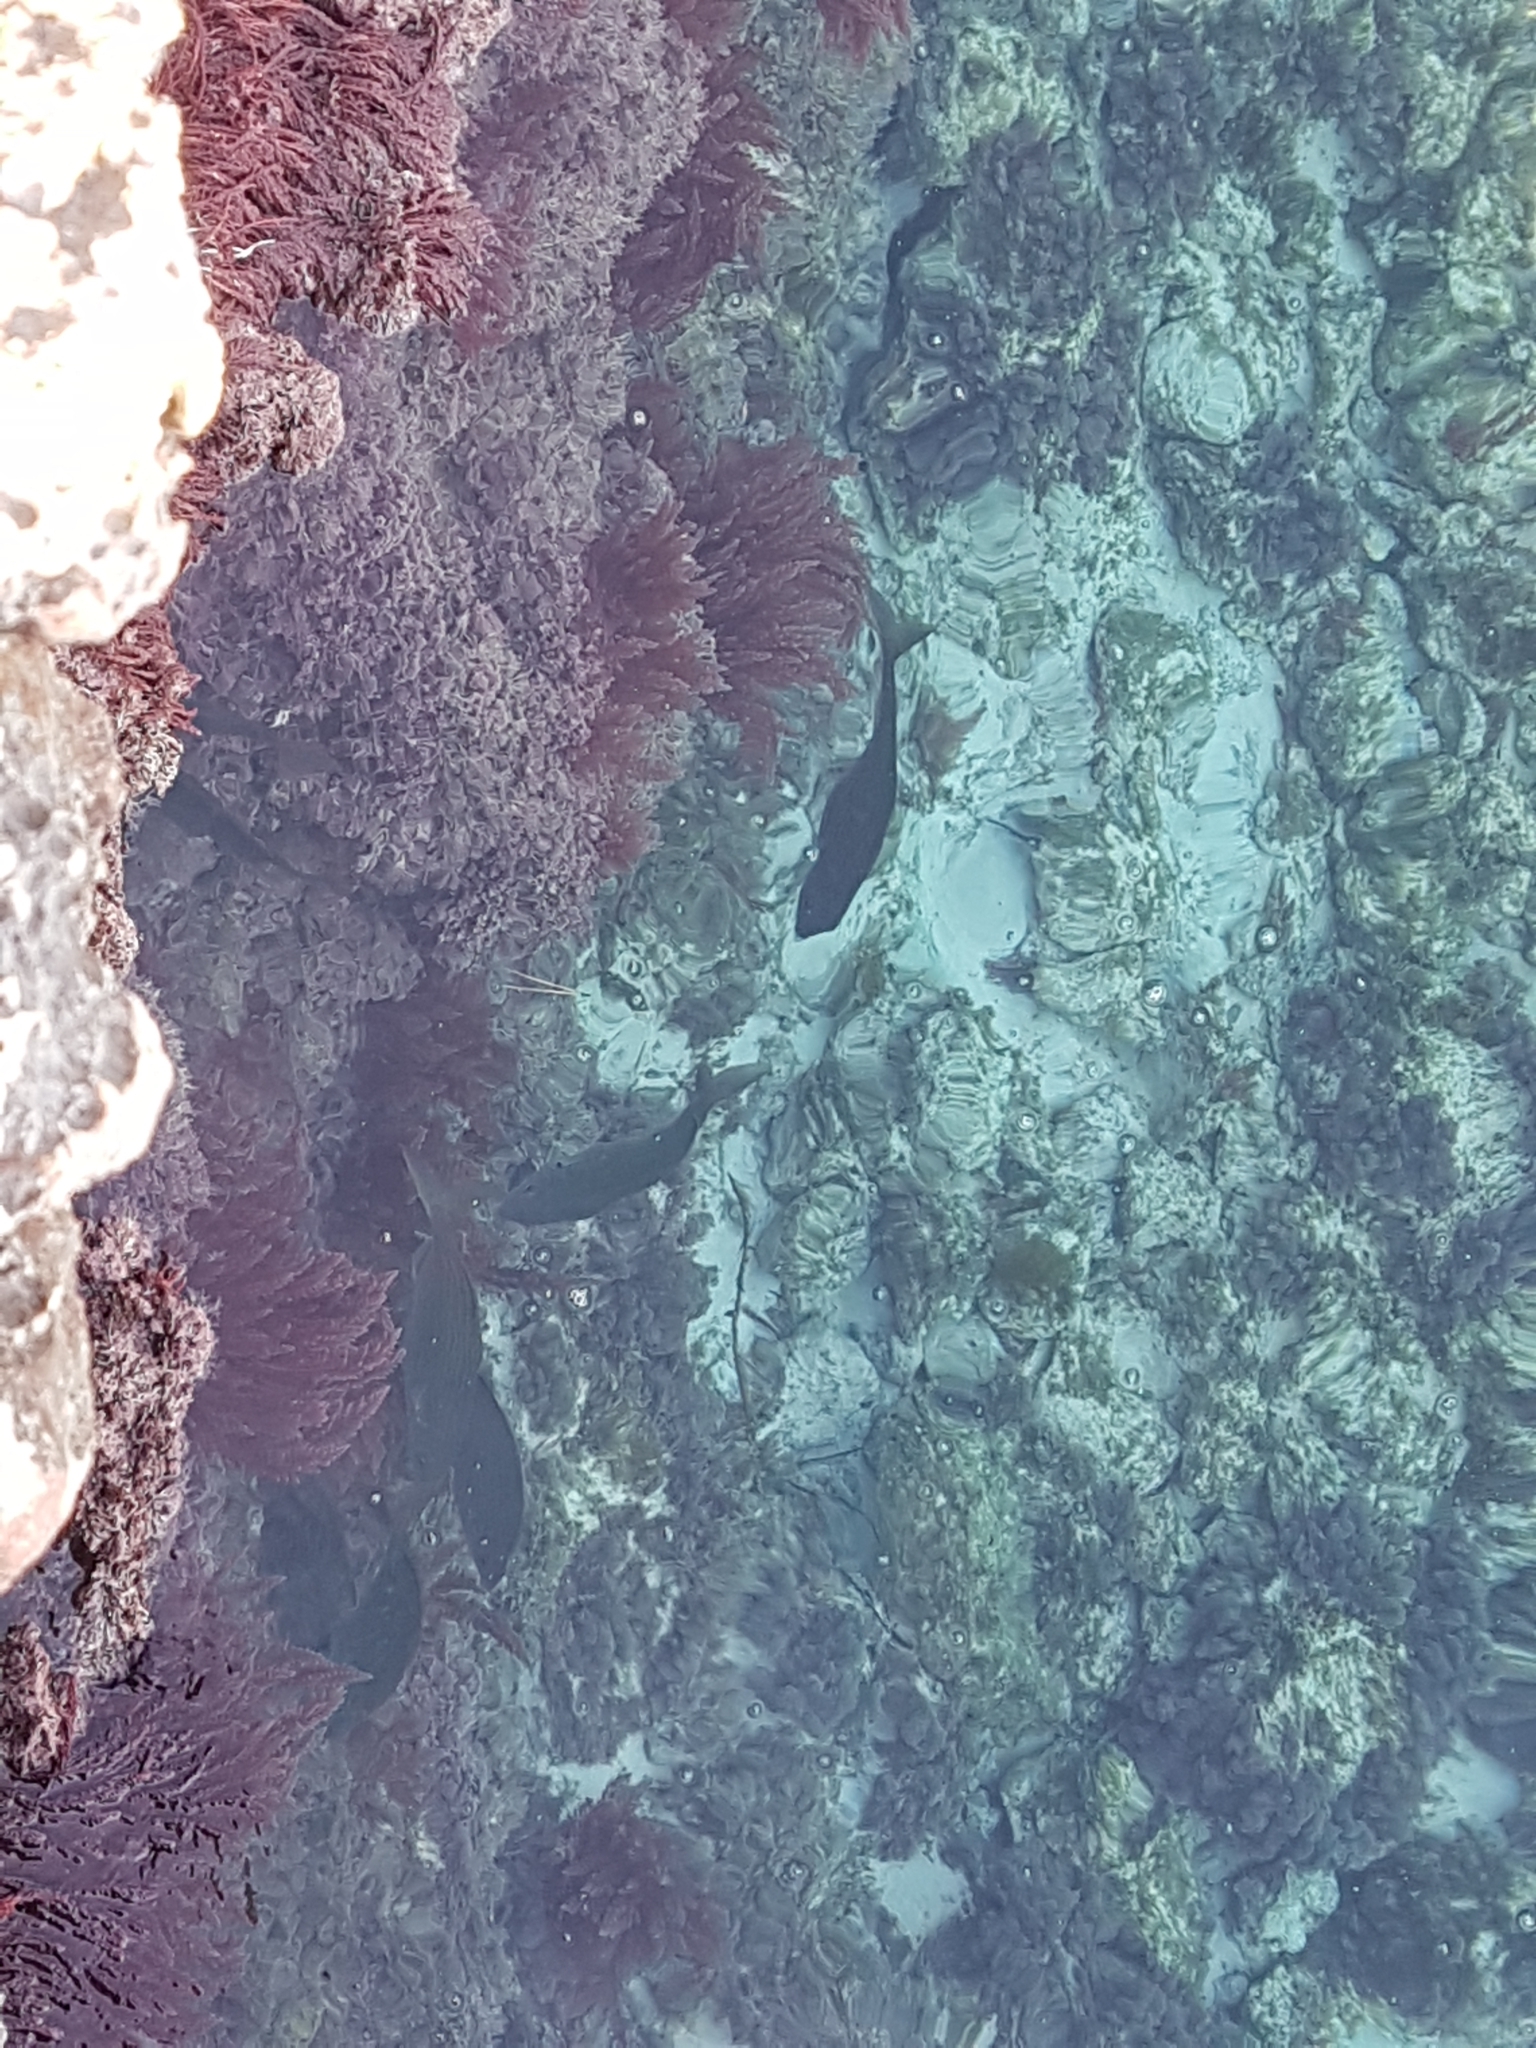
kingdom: Animalia
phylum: Chordata
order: Perciformes
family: Sparidae
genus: Sarpa
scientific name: Sarpa salpa
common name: Salema
